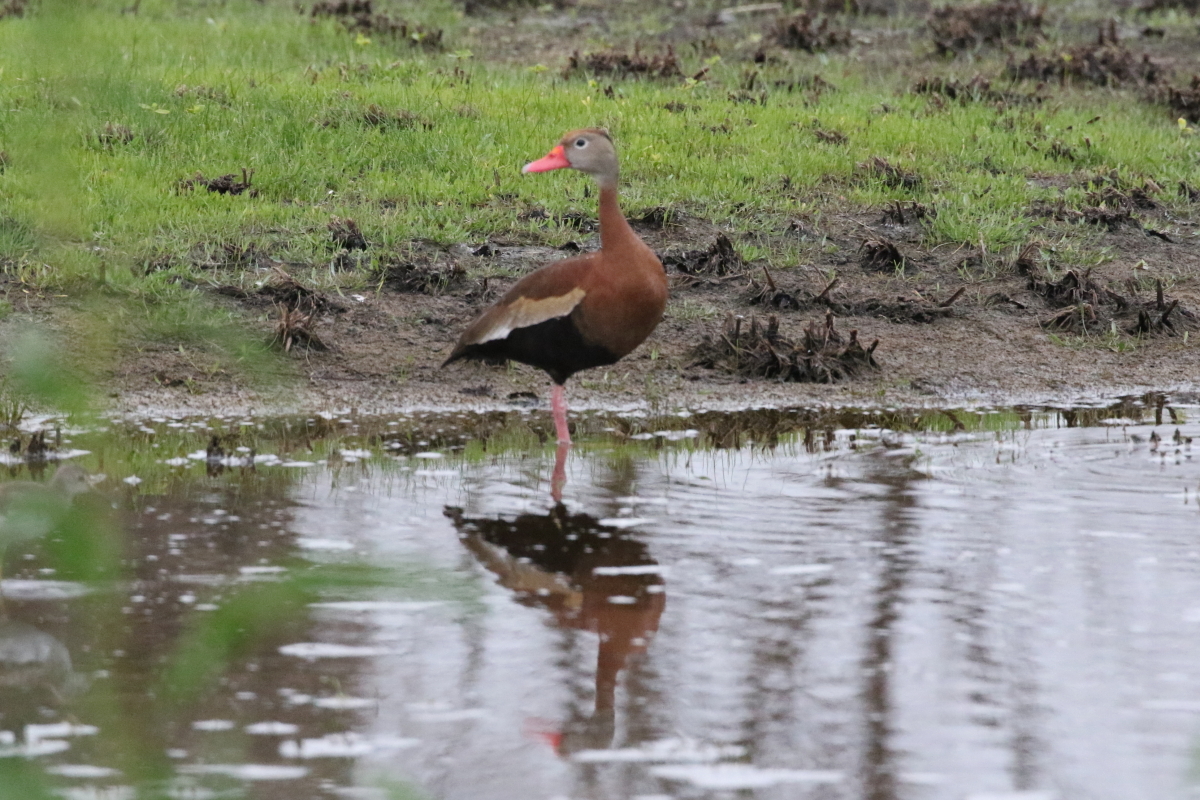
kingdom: Animalia
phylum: Chordata
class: Aves
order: Anseriformes
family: Anatidae
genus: Dendrocygna
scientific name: Dendrocygna autumnalis
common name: Black-bellied whistling duck
